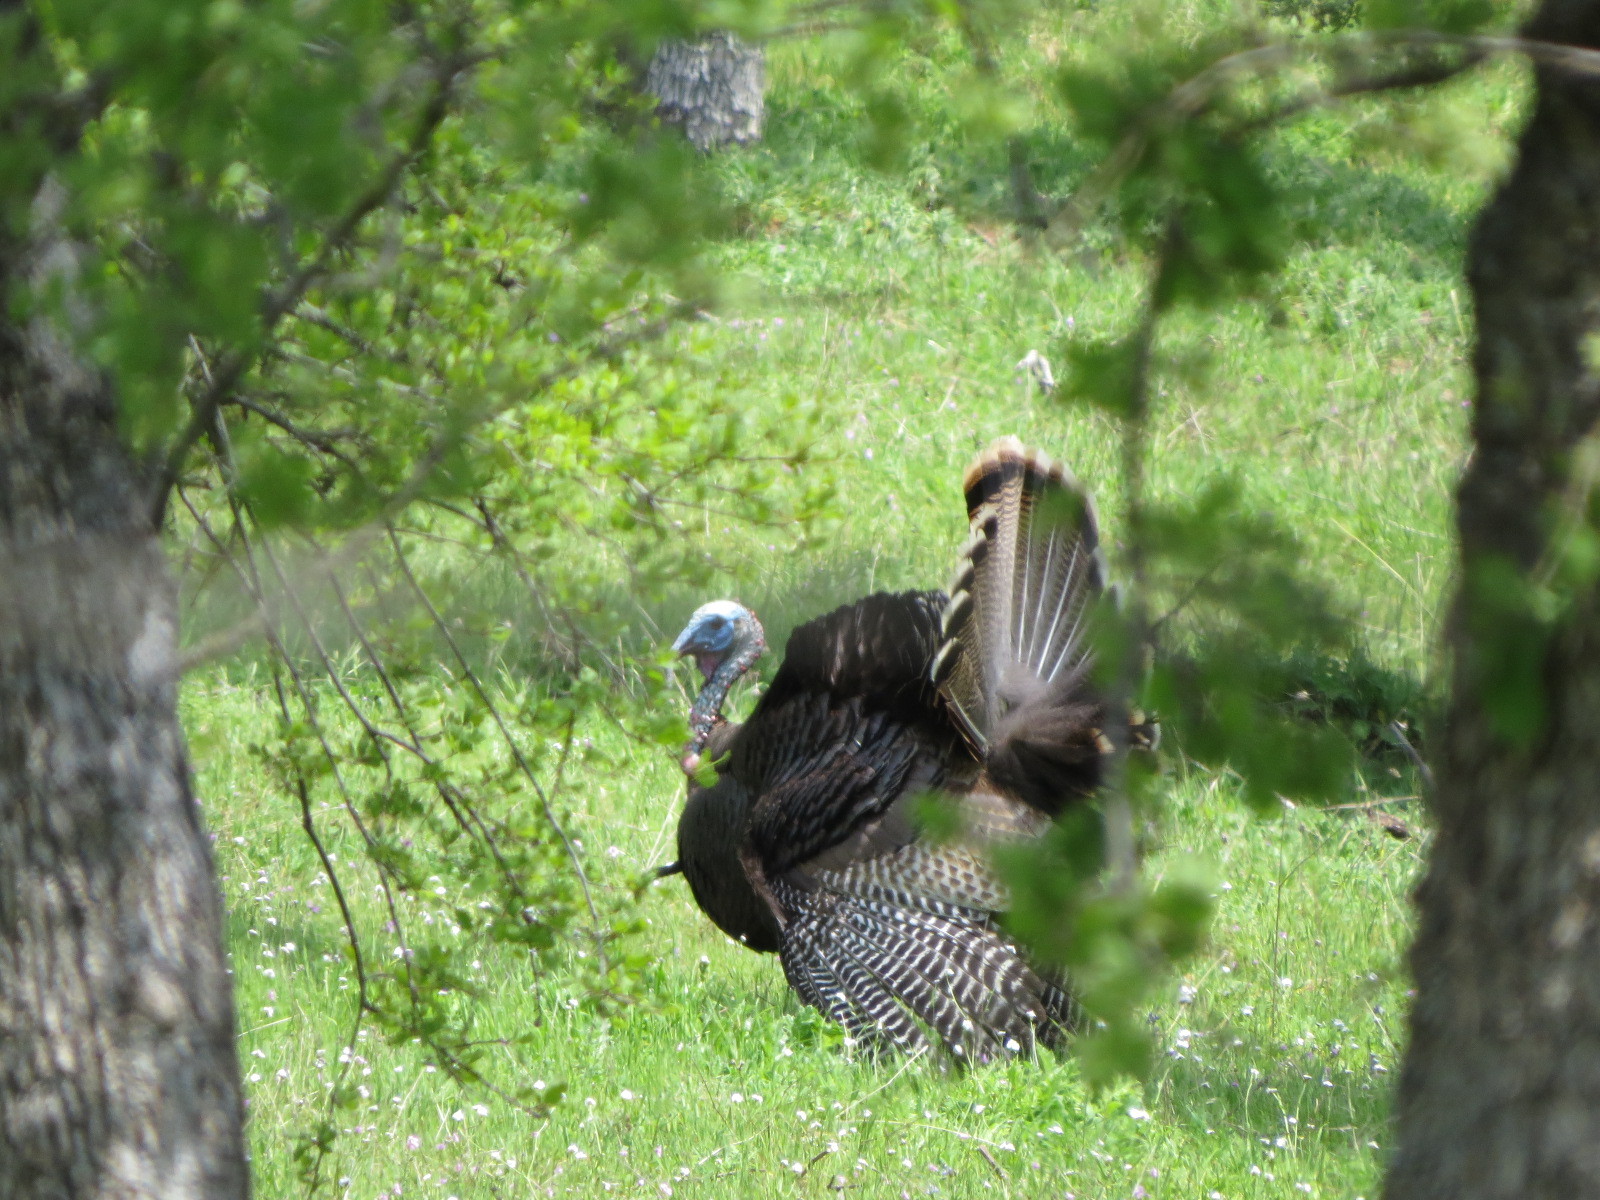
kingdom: Animalia
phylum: Chordata
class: Aves
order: Galliformes
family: Phasianidae
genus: Meleagris
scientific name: Meleagris gallopavo
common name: Wild turkey
